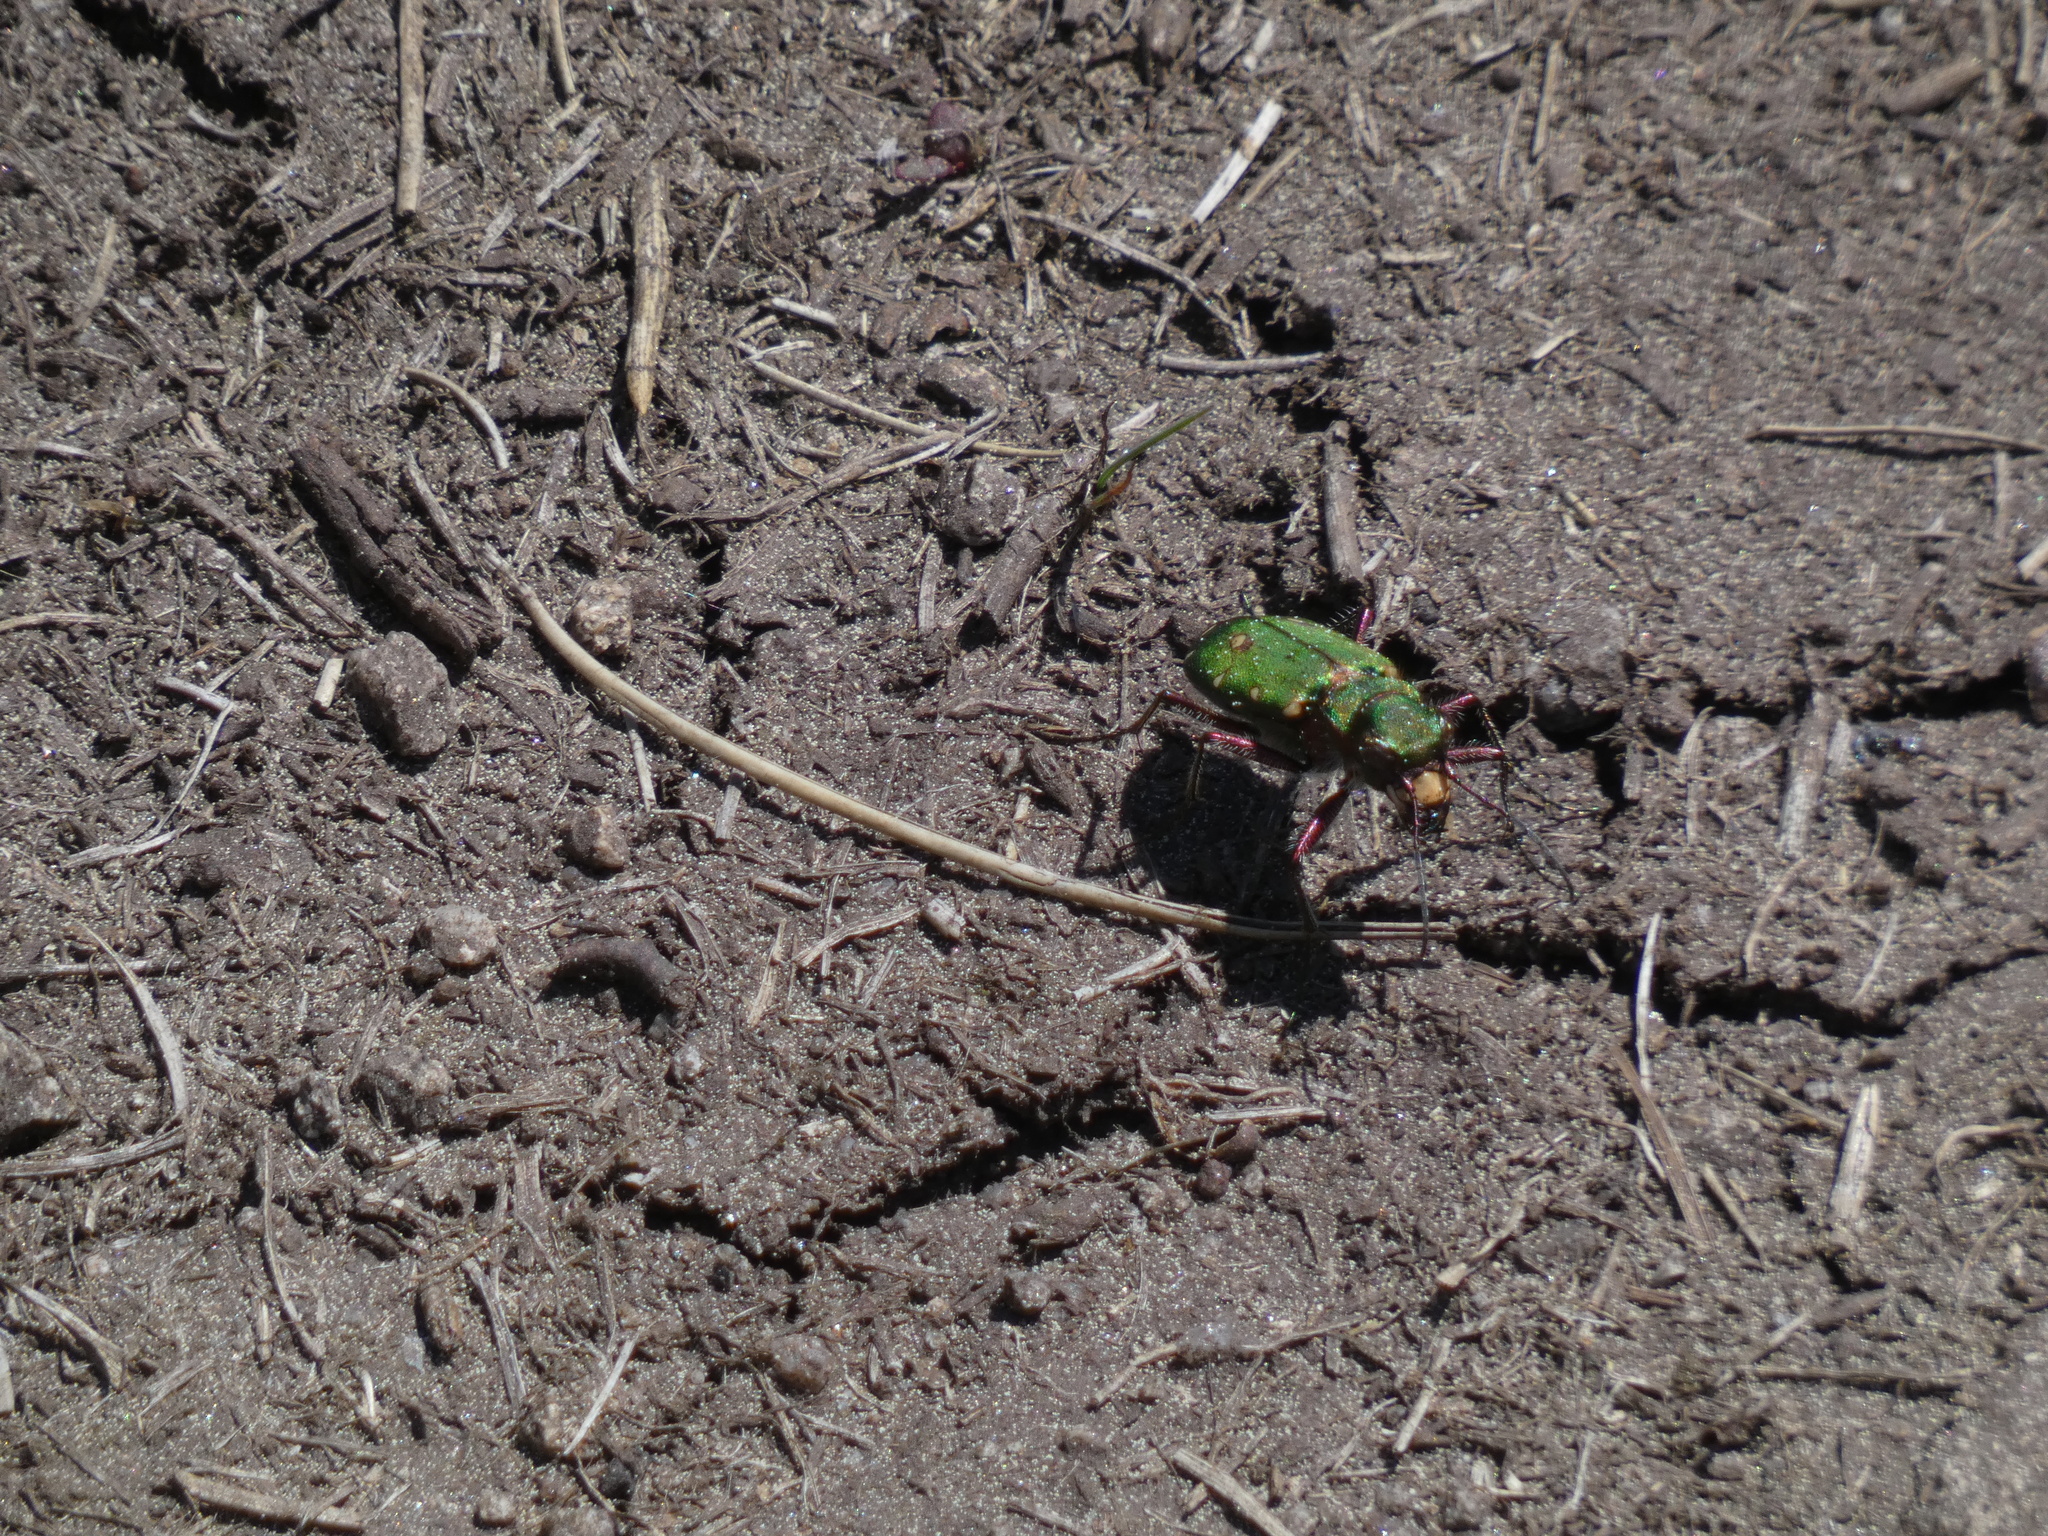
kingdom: Animalia
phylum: Arthropoda
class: Insecta
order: Coleoptera
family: Carabidae
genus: Cicindela
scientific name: Cicindela campestris
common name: Common tiger beetle
